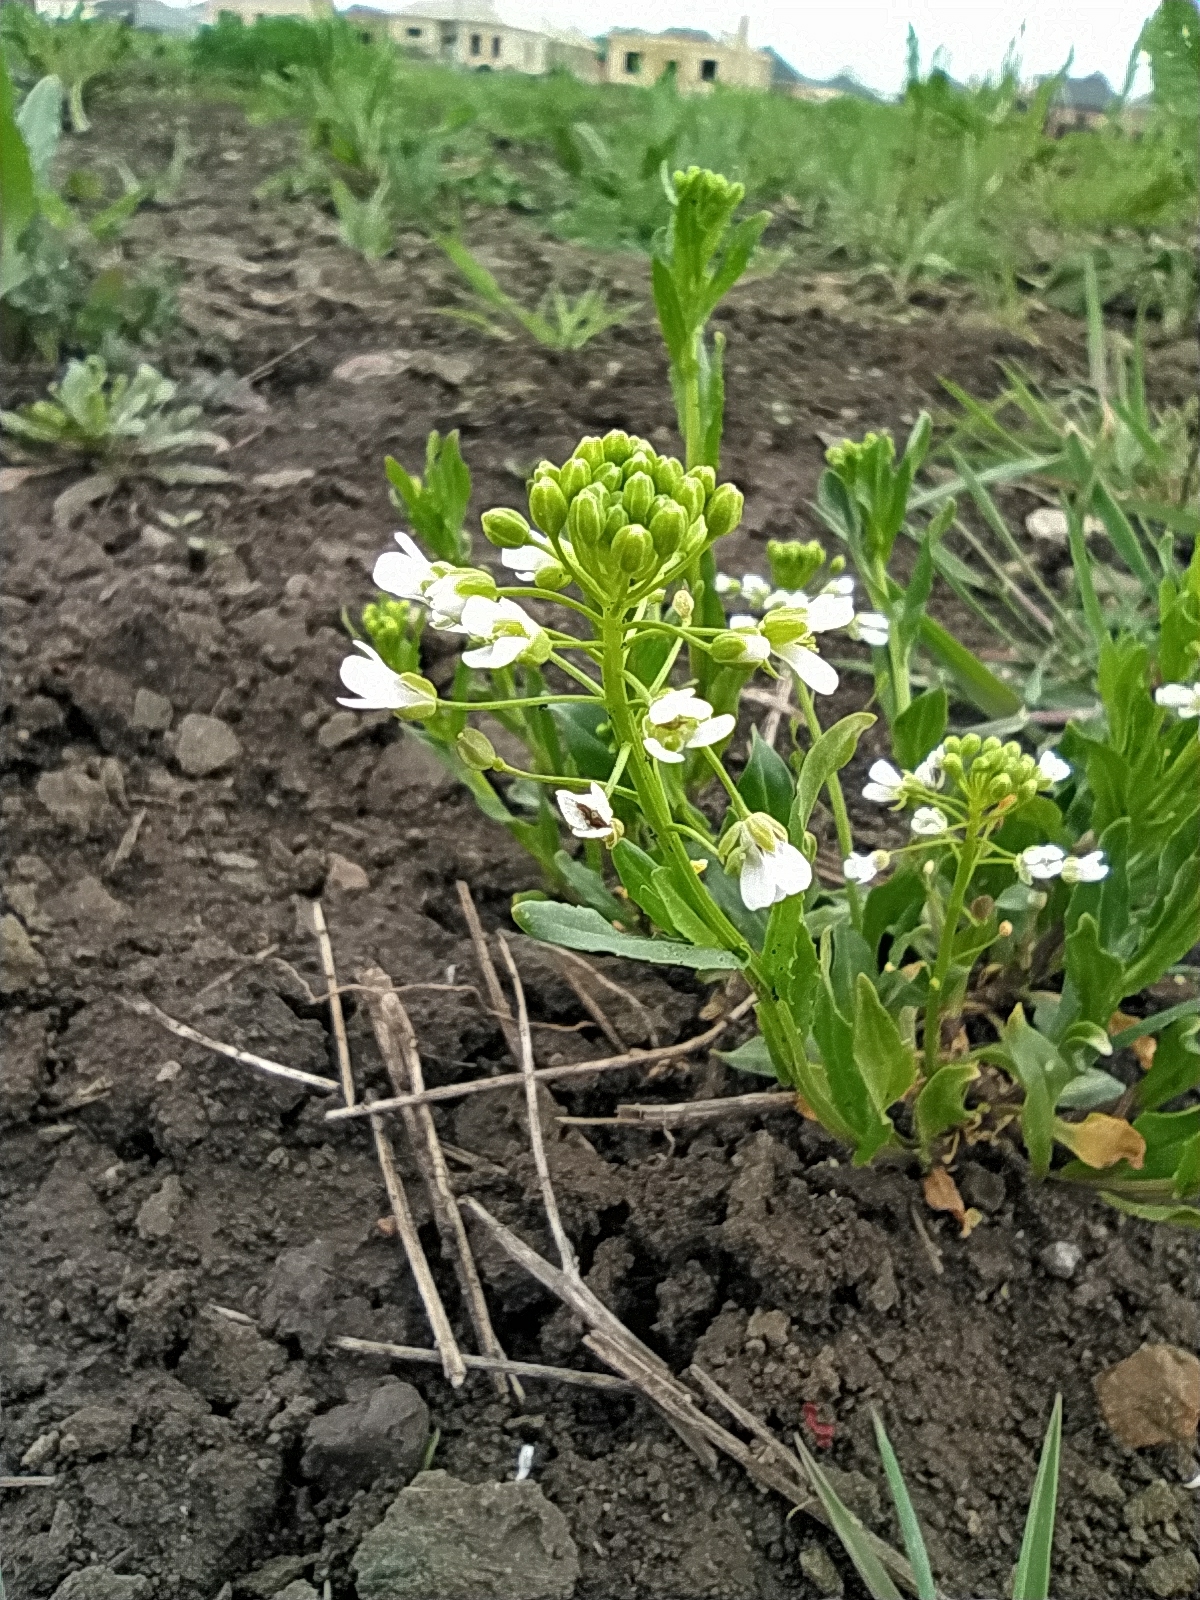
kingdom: Plantae
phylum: Tracheophyta
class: Magnoliopsida
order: Brassicales
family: Brassicaceae
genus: Thlaspi
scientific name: Thlaspi arvense
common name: Field pennycress
